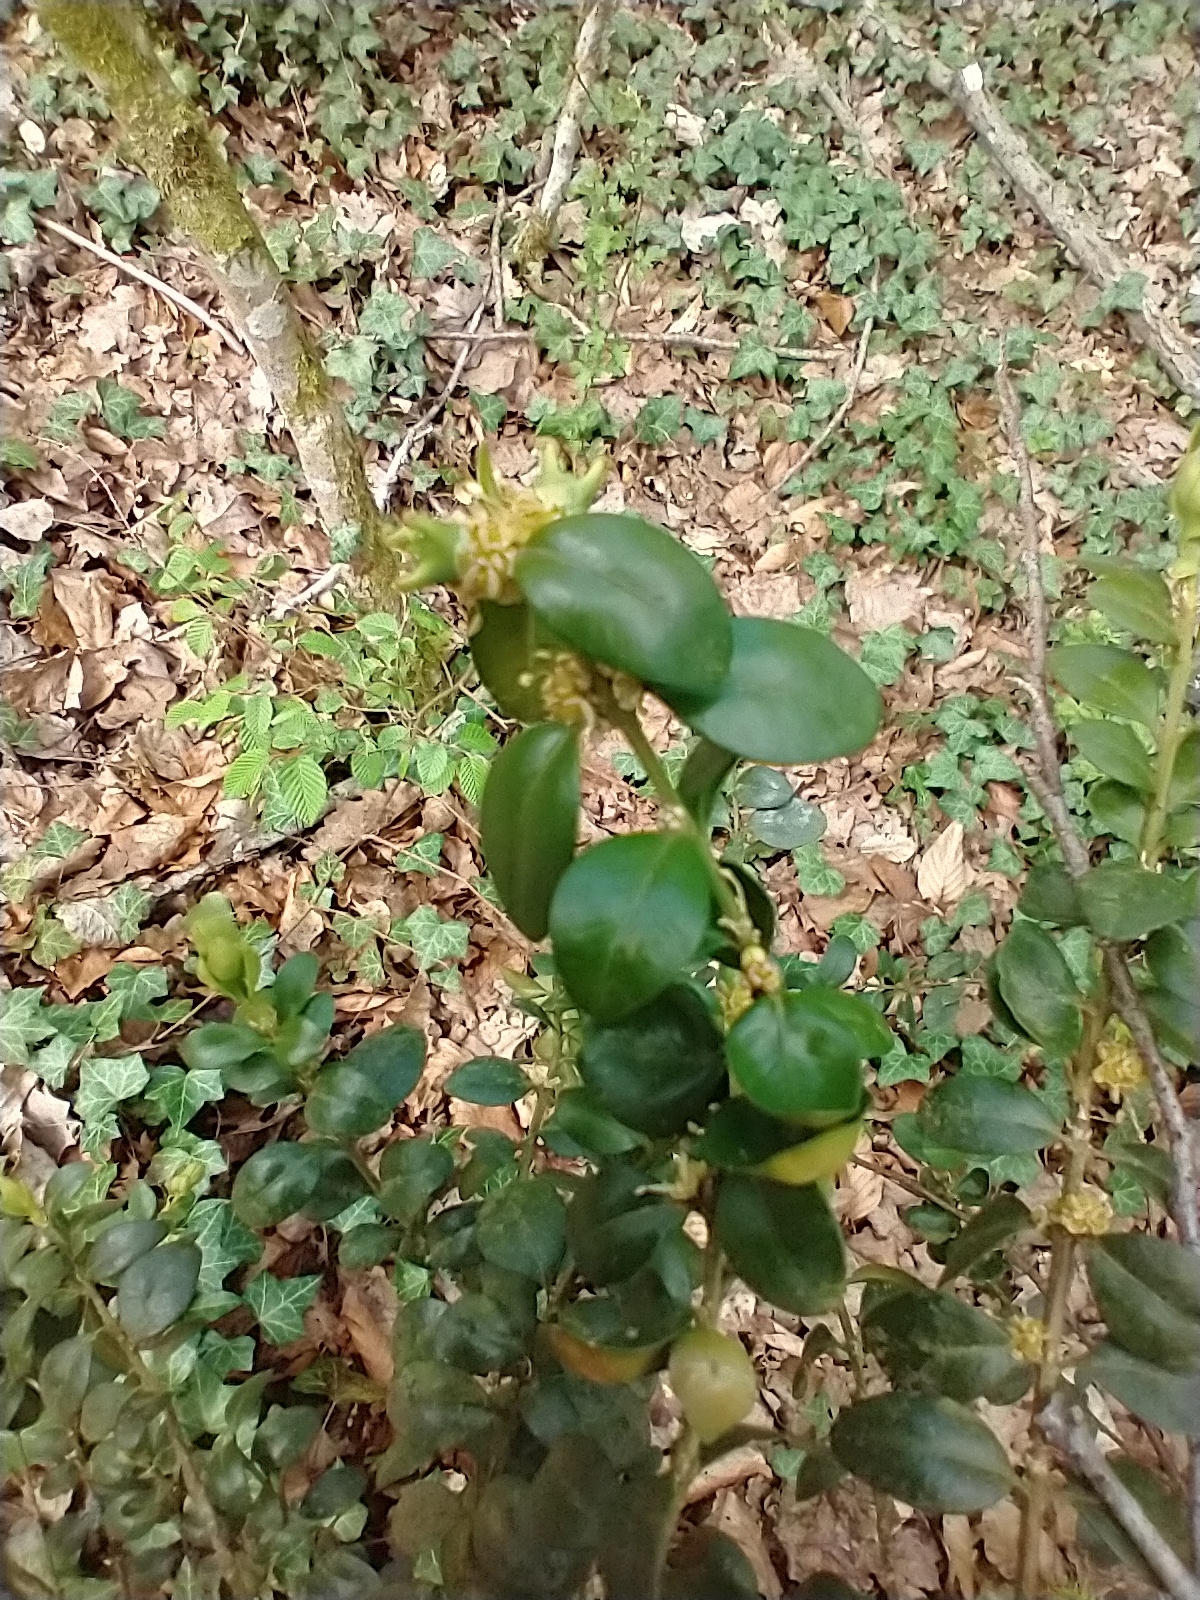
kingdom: Plantae
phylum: Tracheophyta
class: Magnoliopsida
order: Buxales
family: Buxaceae
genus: Buxus
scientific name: Buxus sempervirens
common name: Box
